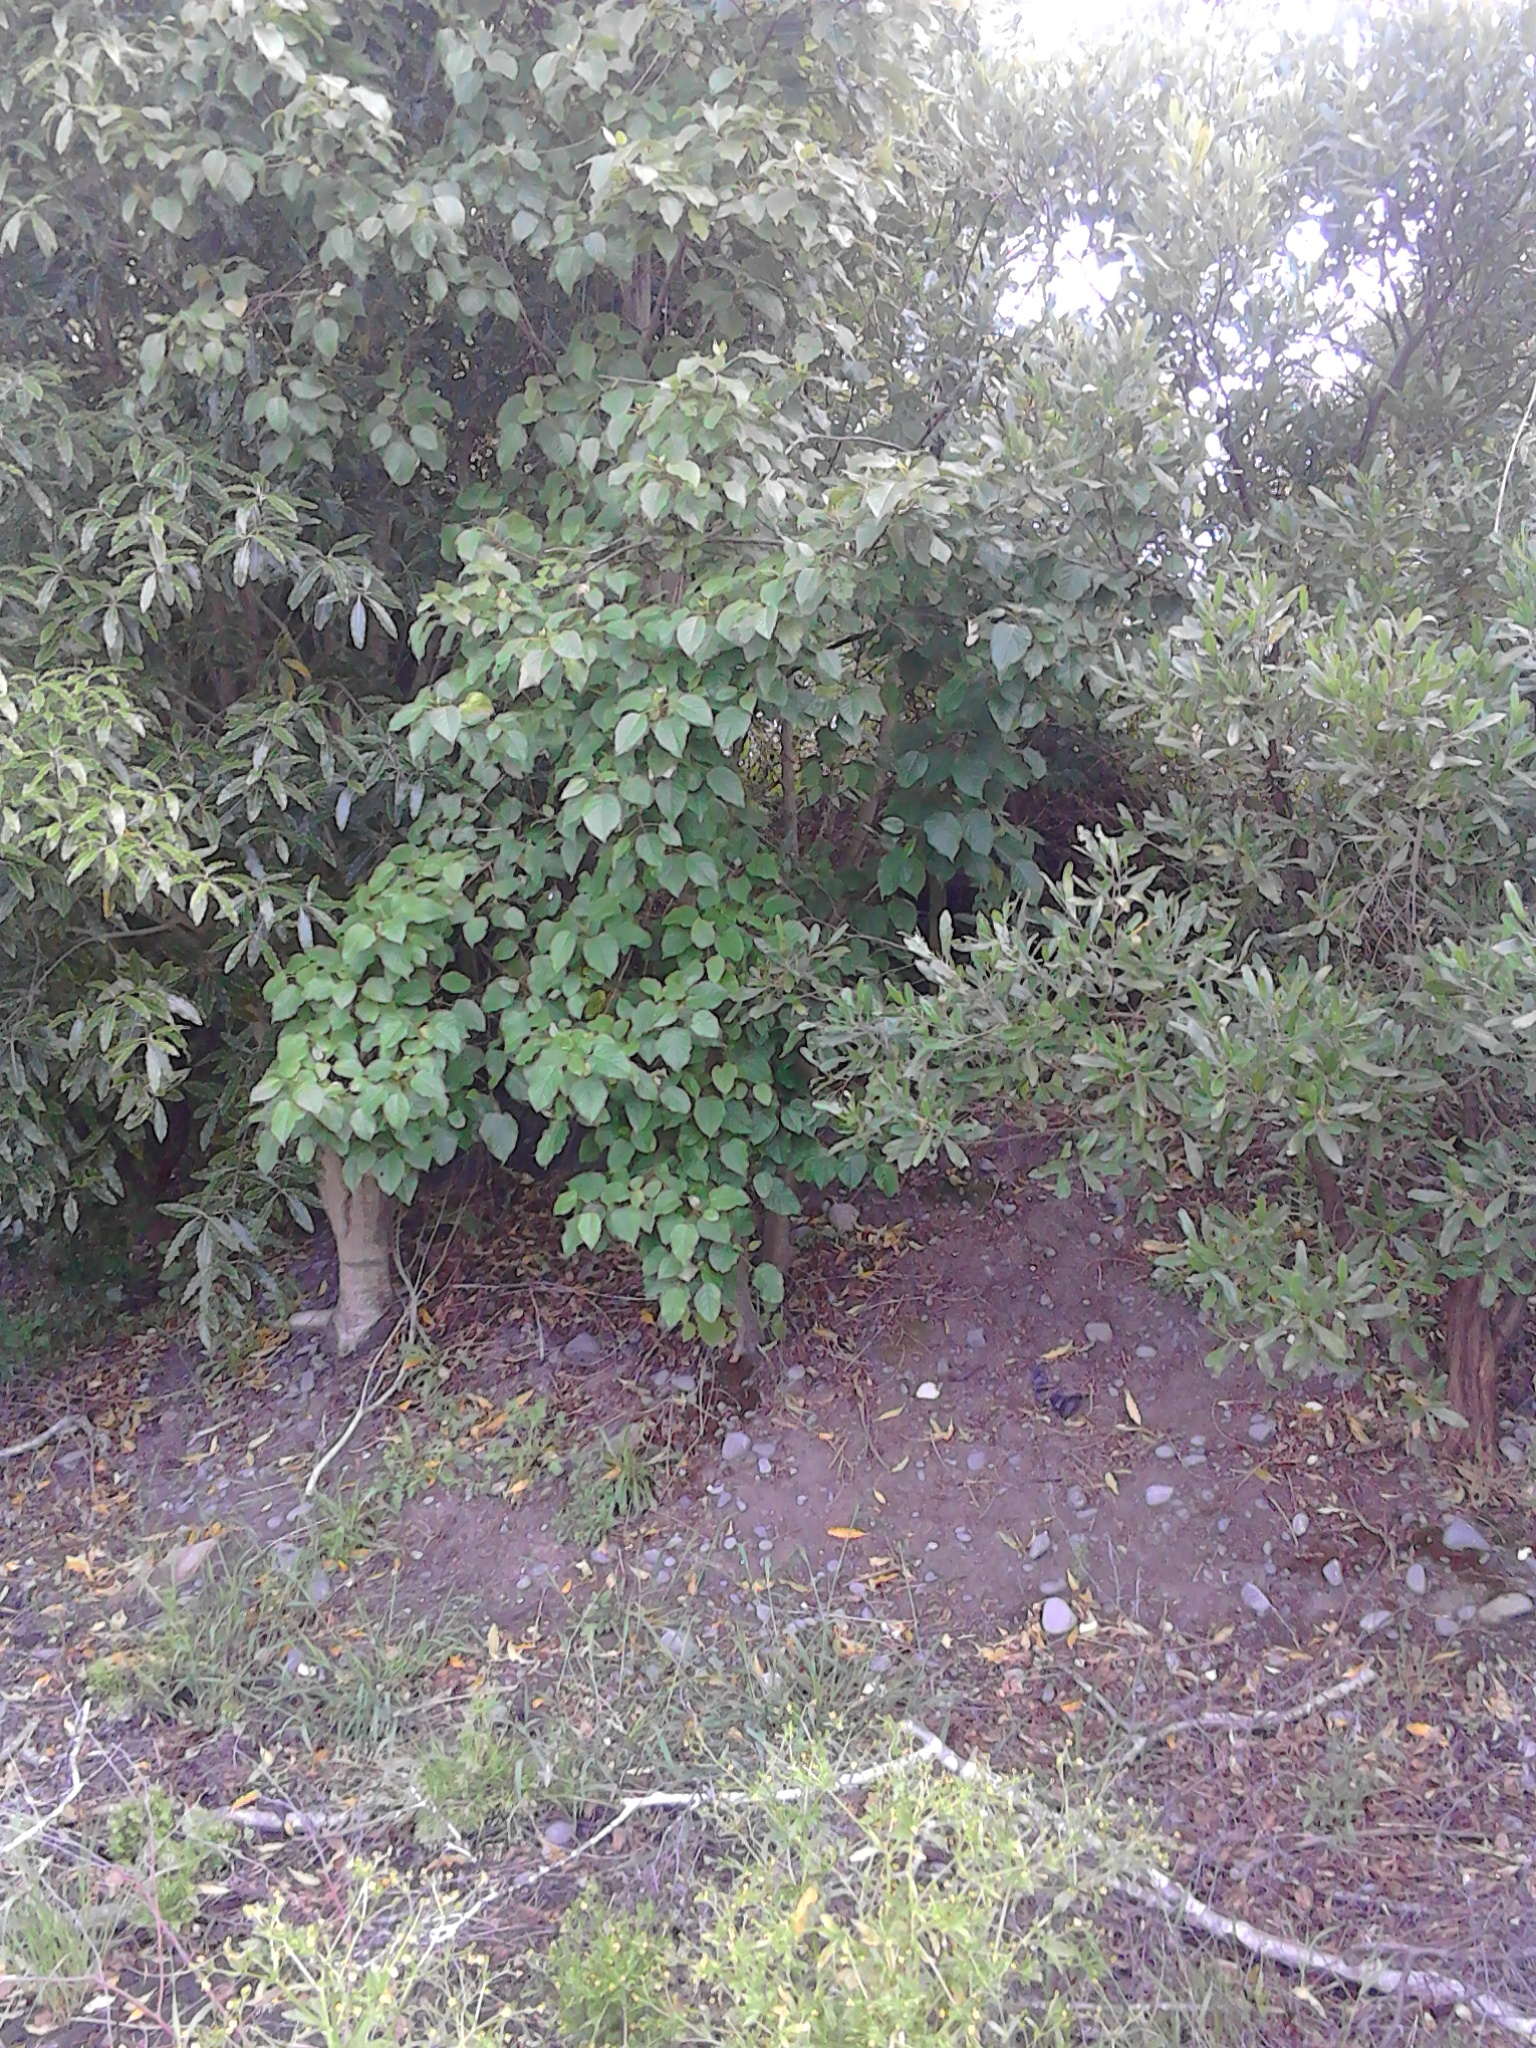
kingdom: Plantae
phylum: Tracheophyta
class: Magnoliopsida
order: Oxalidales
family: Elaeocarpaceae
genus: Aristotelia
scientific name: Aristotelia serrata
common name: New zealand wineberry
